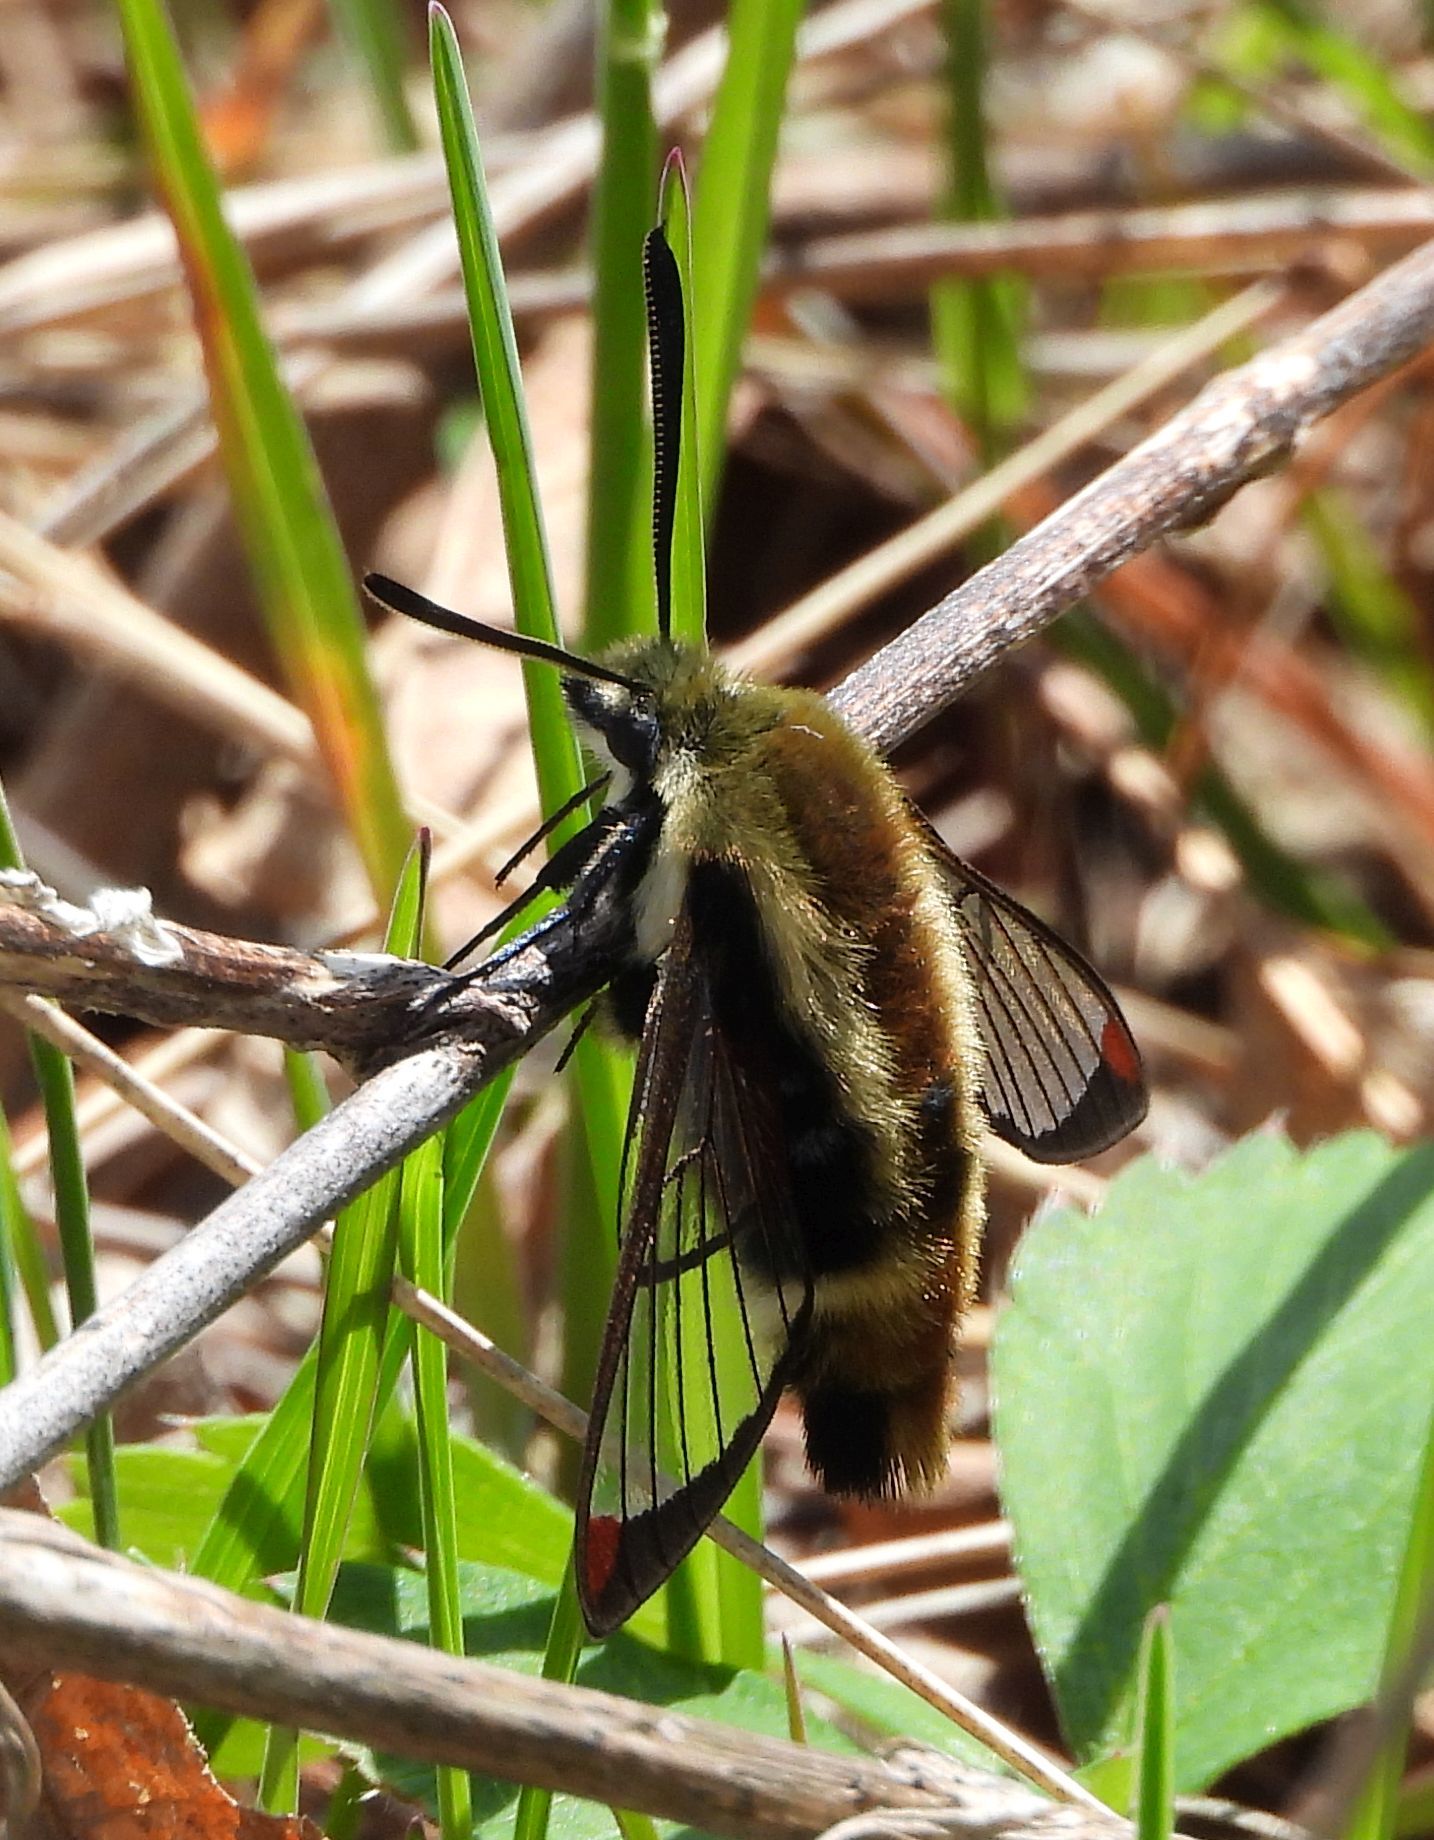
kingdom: Animalia
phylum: Arthropoda
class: Insecta
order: Lepidoptera
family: Sphingidae
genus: Hemaris
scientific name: Hemaris diffinis
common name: Bumblebee moth
